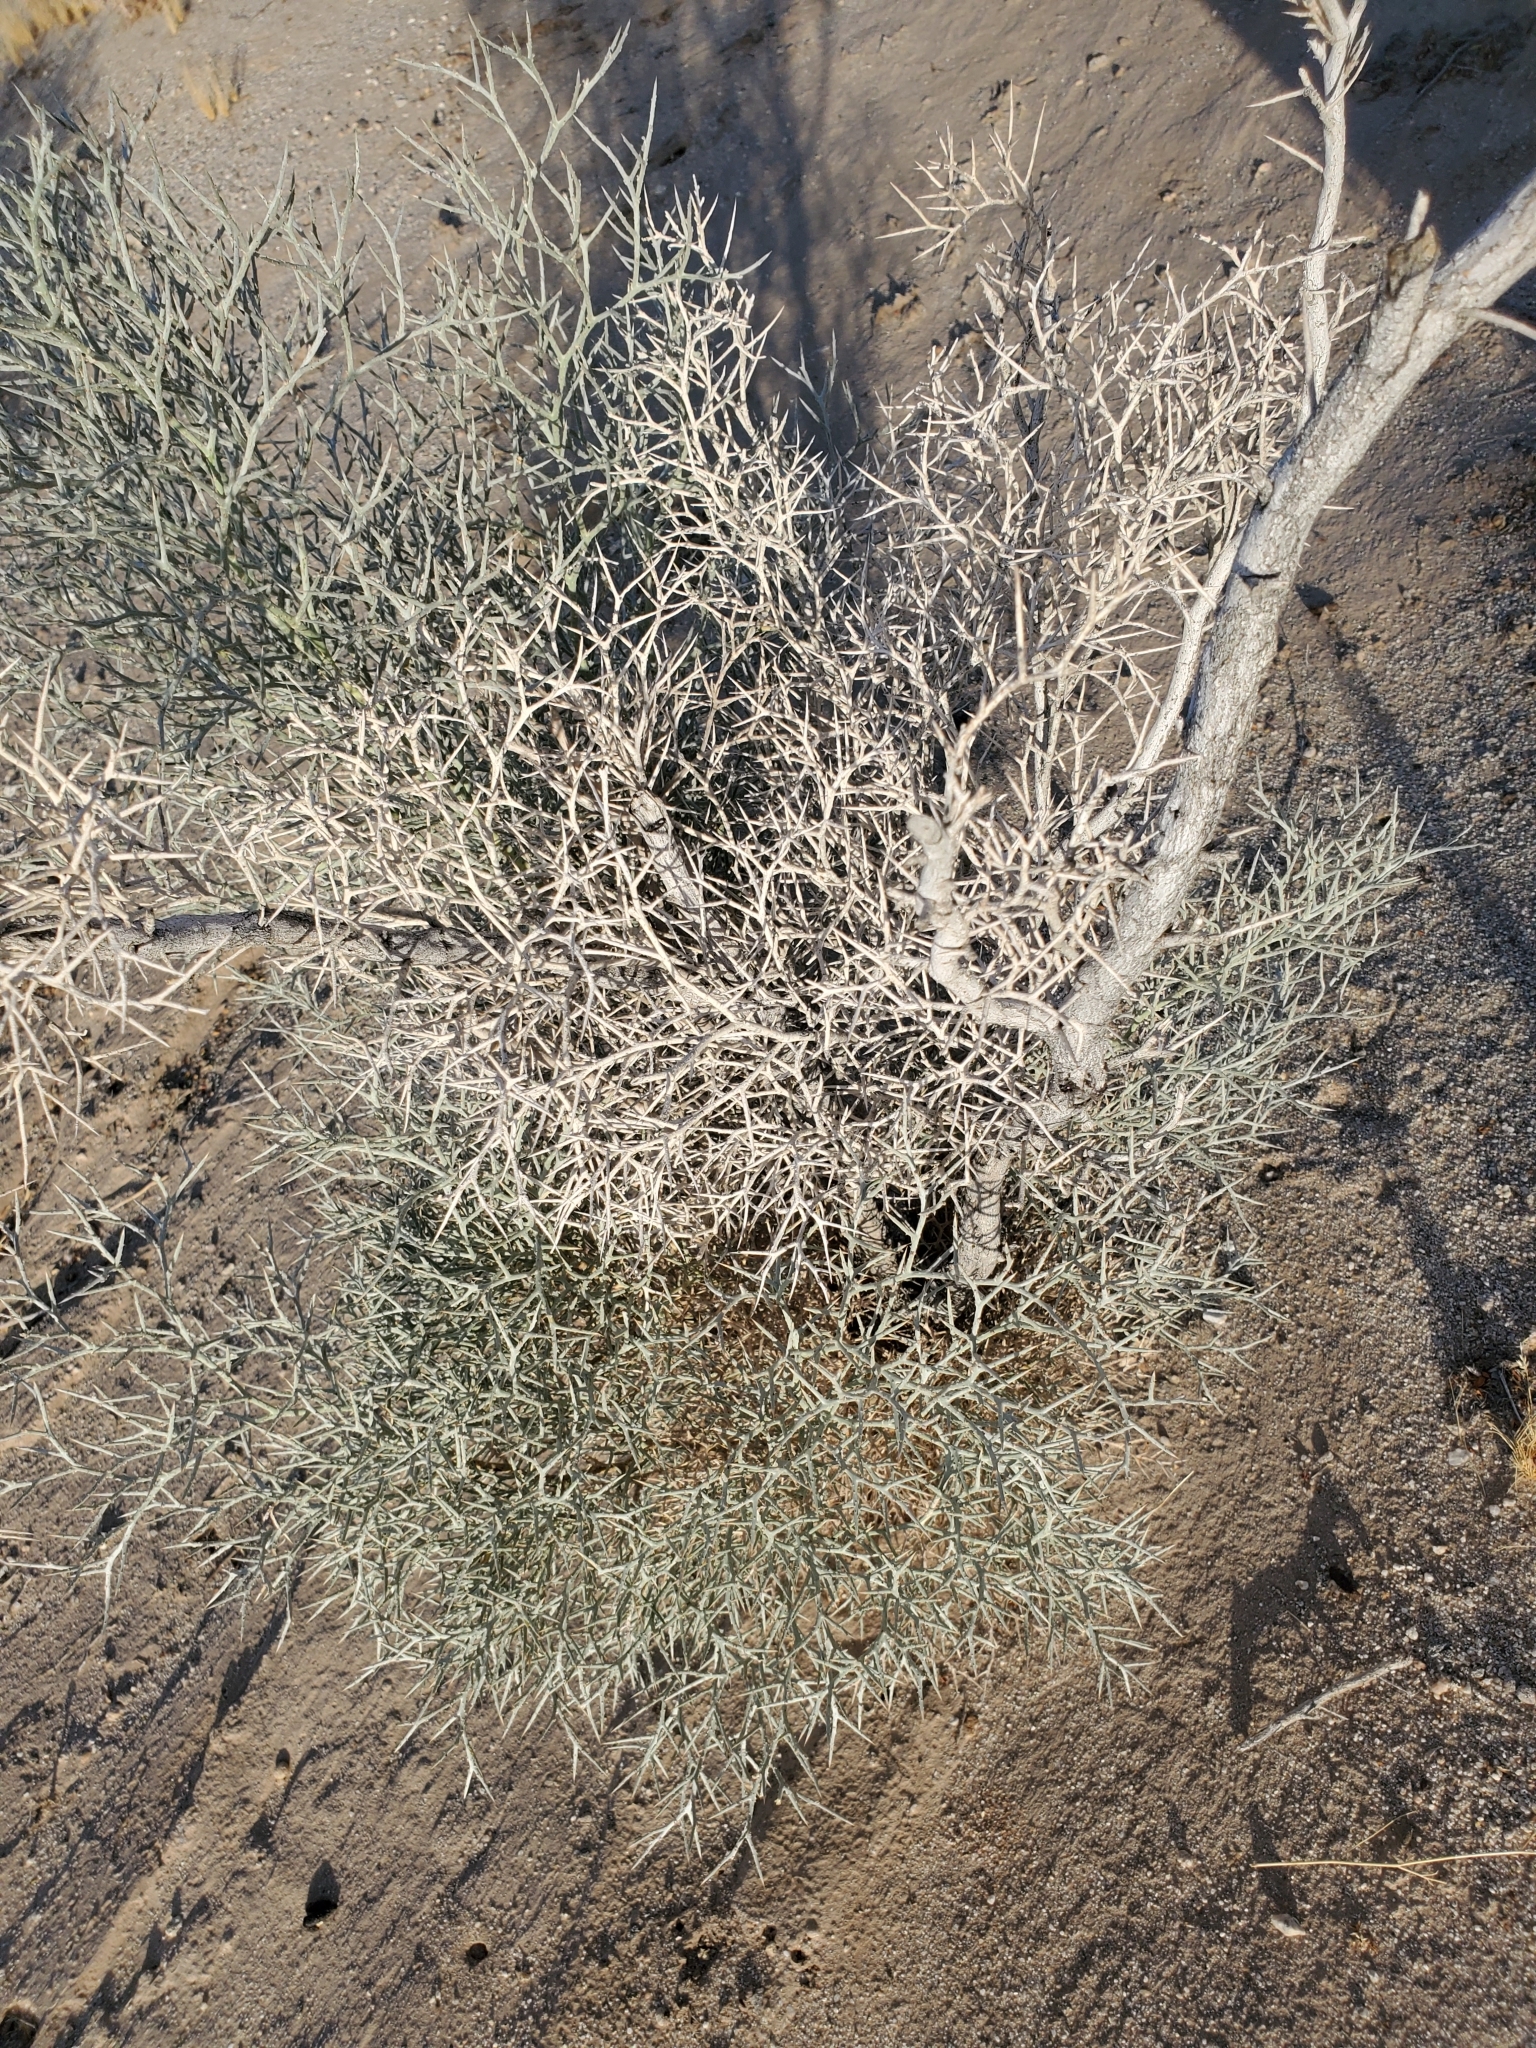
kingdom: Plantae
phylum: Tracheophyta
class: Magnoliopsida
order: Fabales
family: Fabaceae
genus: Psorothamnus
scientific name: Psorothamnus spinosus
